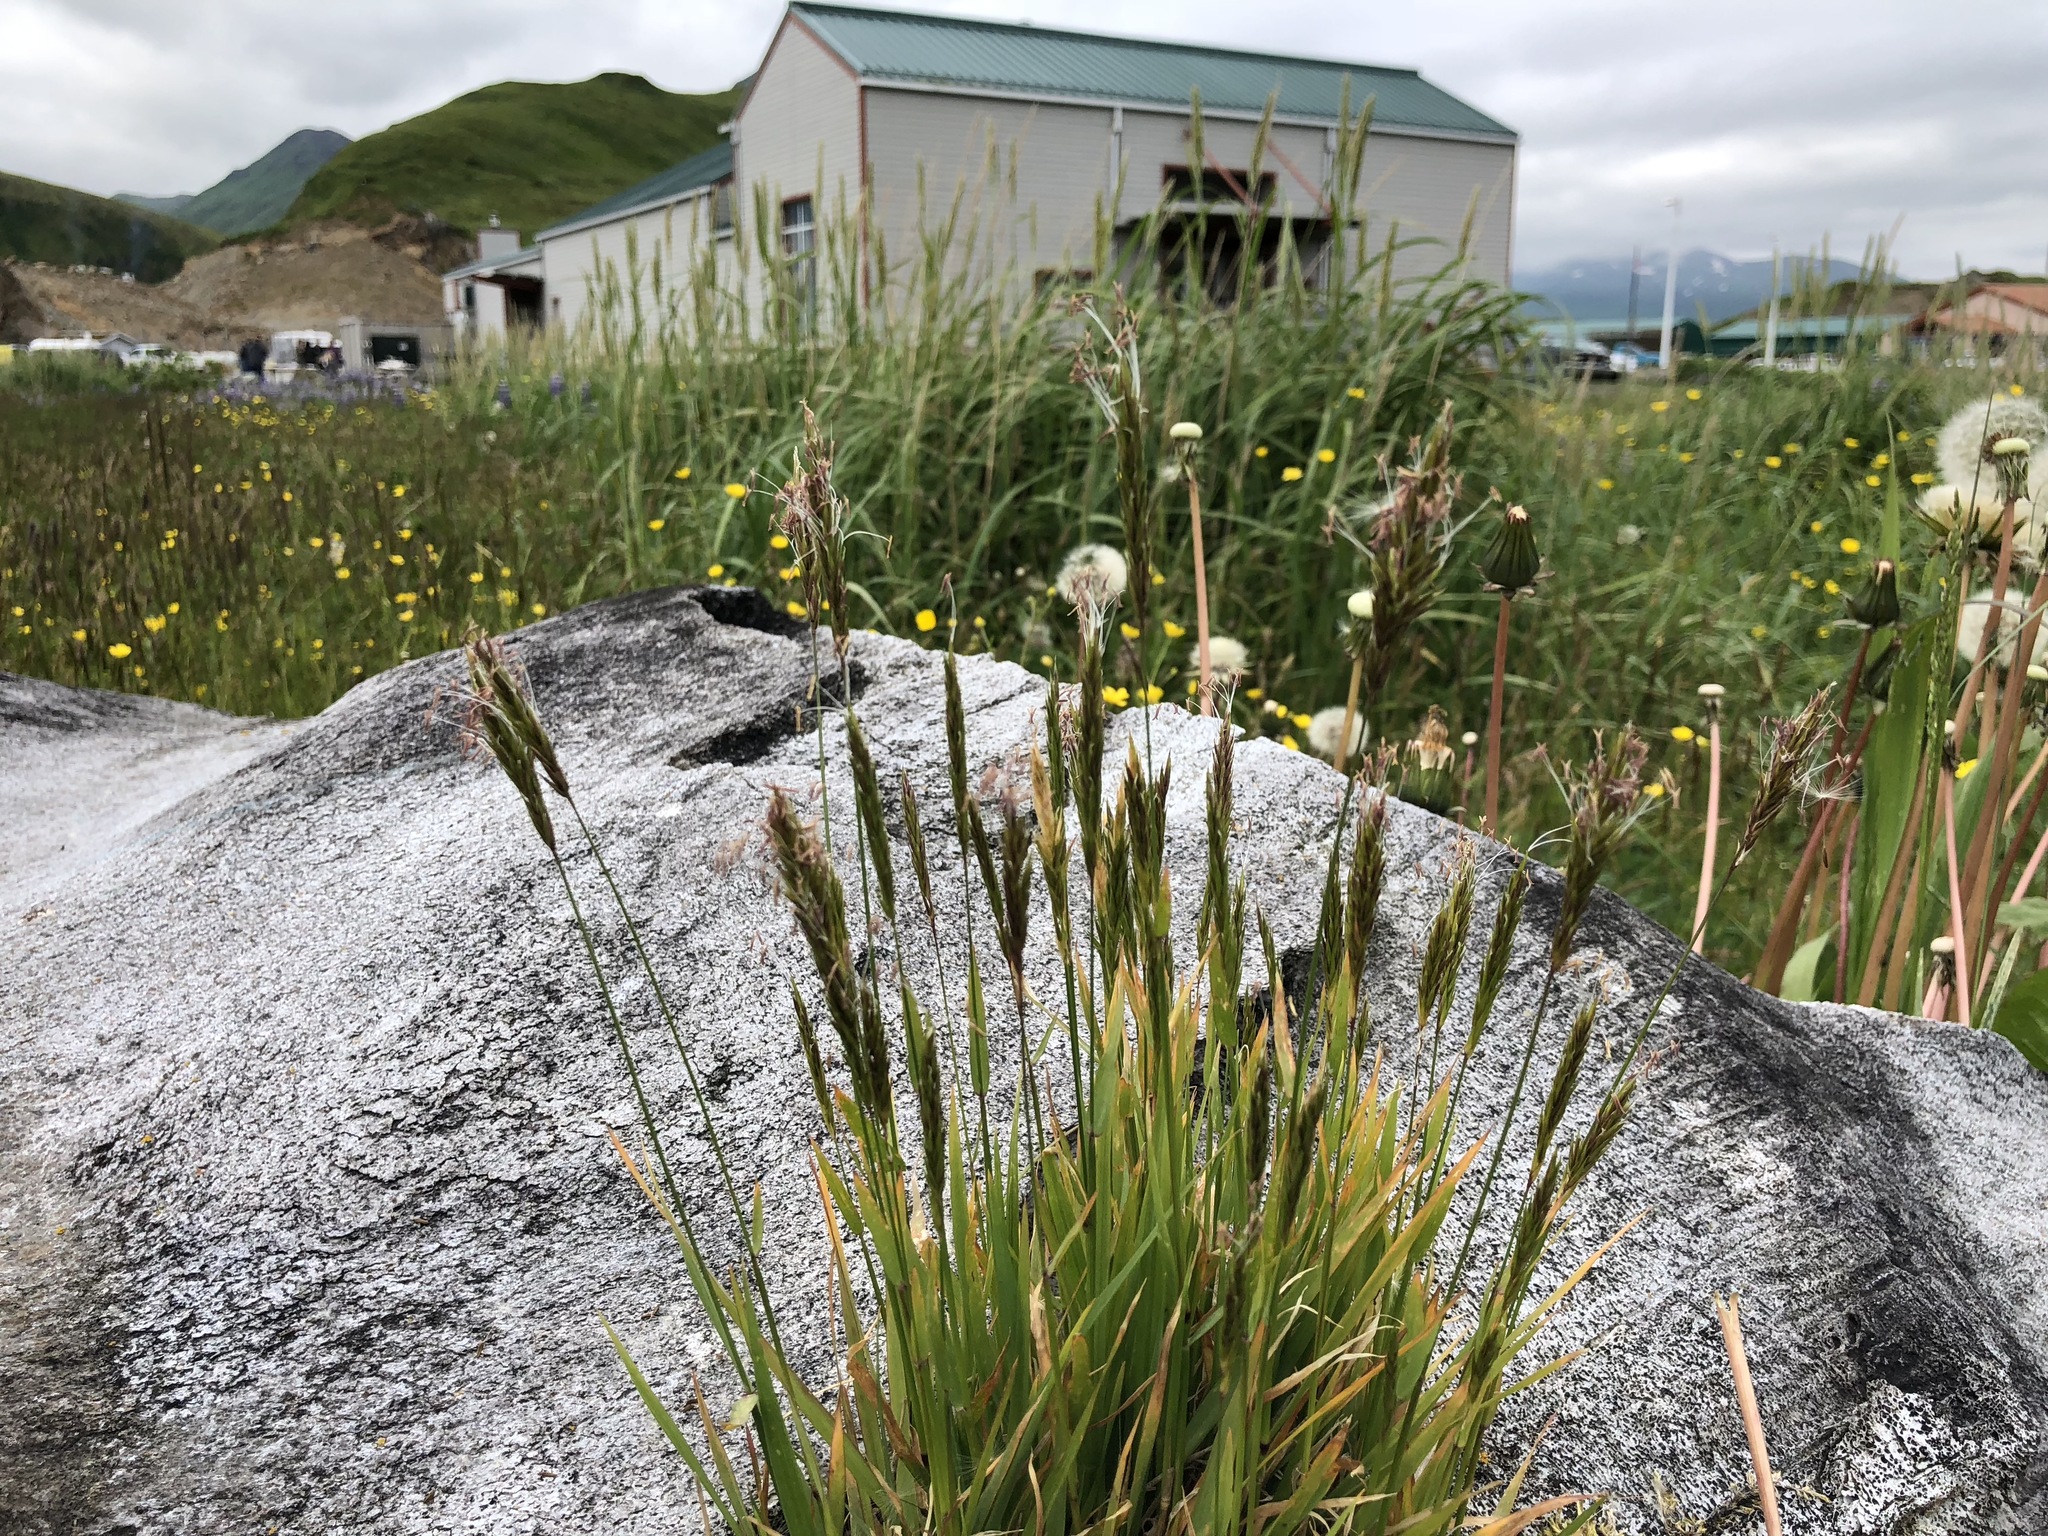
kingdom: Plantae
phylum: Tracheophyta
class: Liliopsida
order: Poales
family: Poaceae
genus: Anthoxanthum
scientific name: Anthoxanthum odoratum
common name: Sweet vernalgrass
